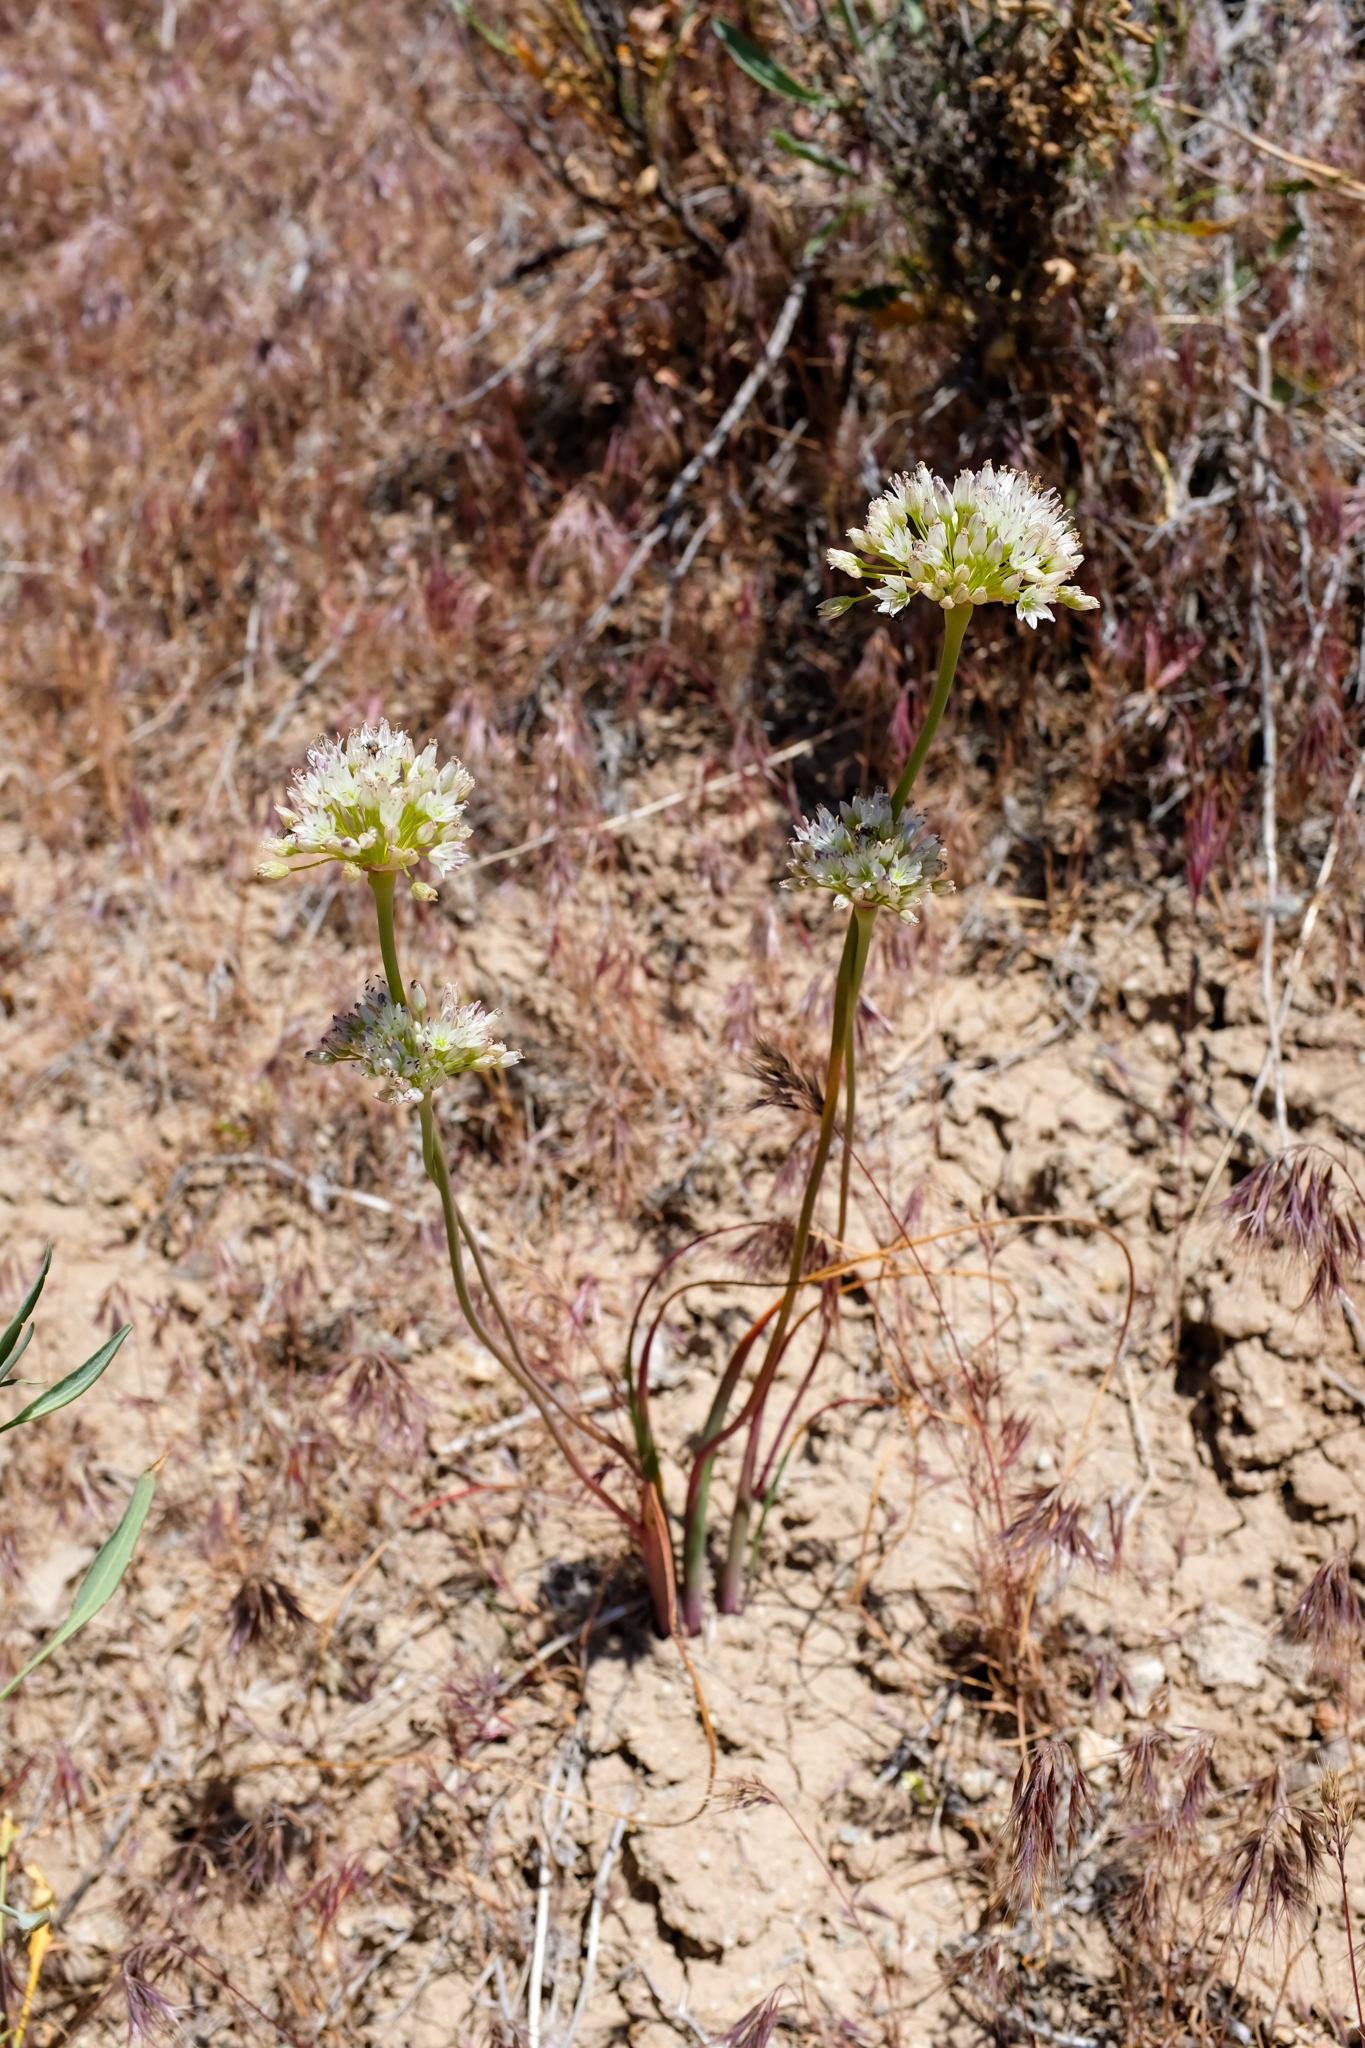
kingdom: Plantae
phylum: Tracheophyta
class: Liliopsida
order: Asparagales
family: Amaryllidaceae
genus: Allium
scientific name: Allium howellii
